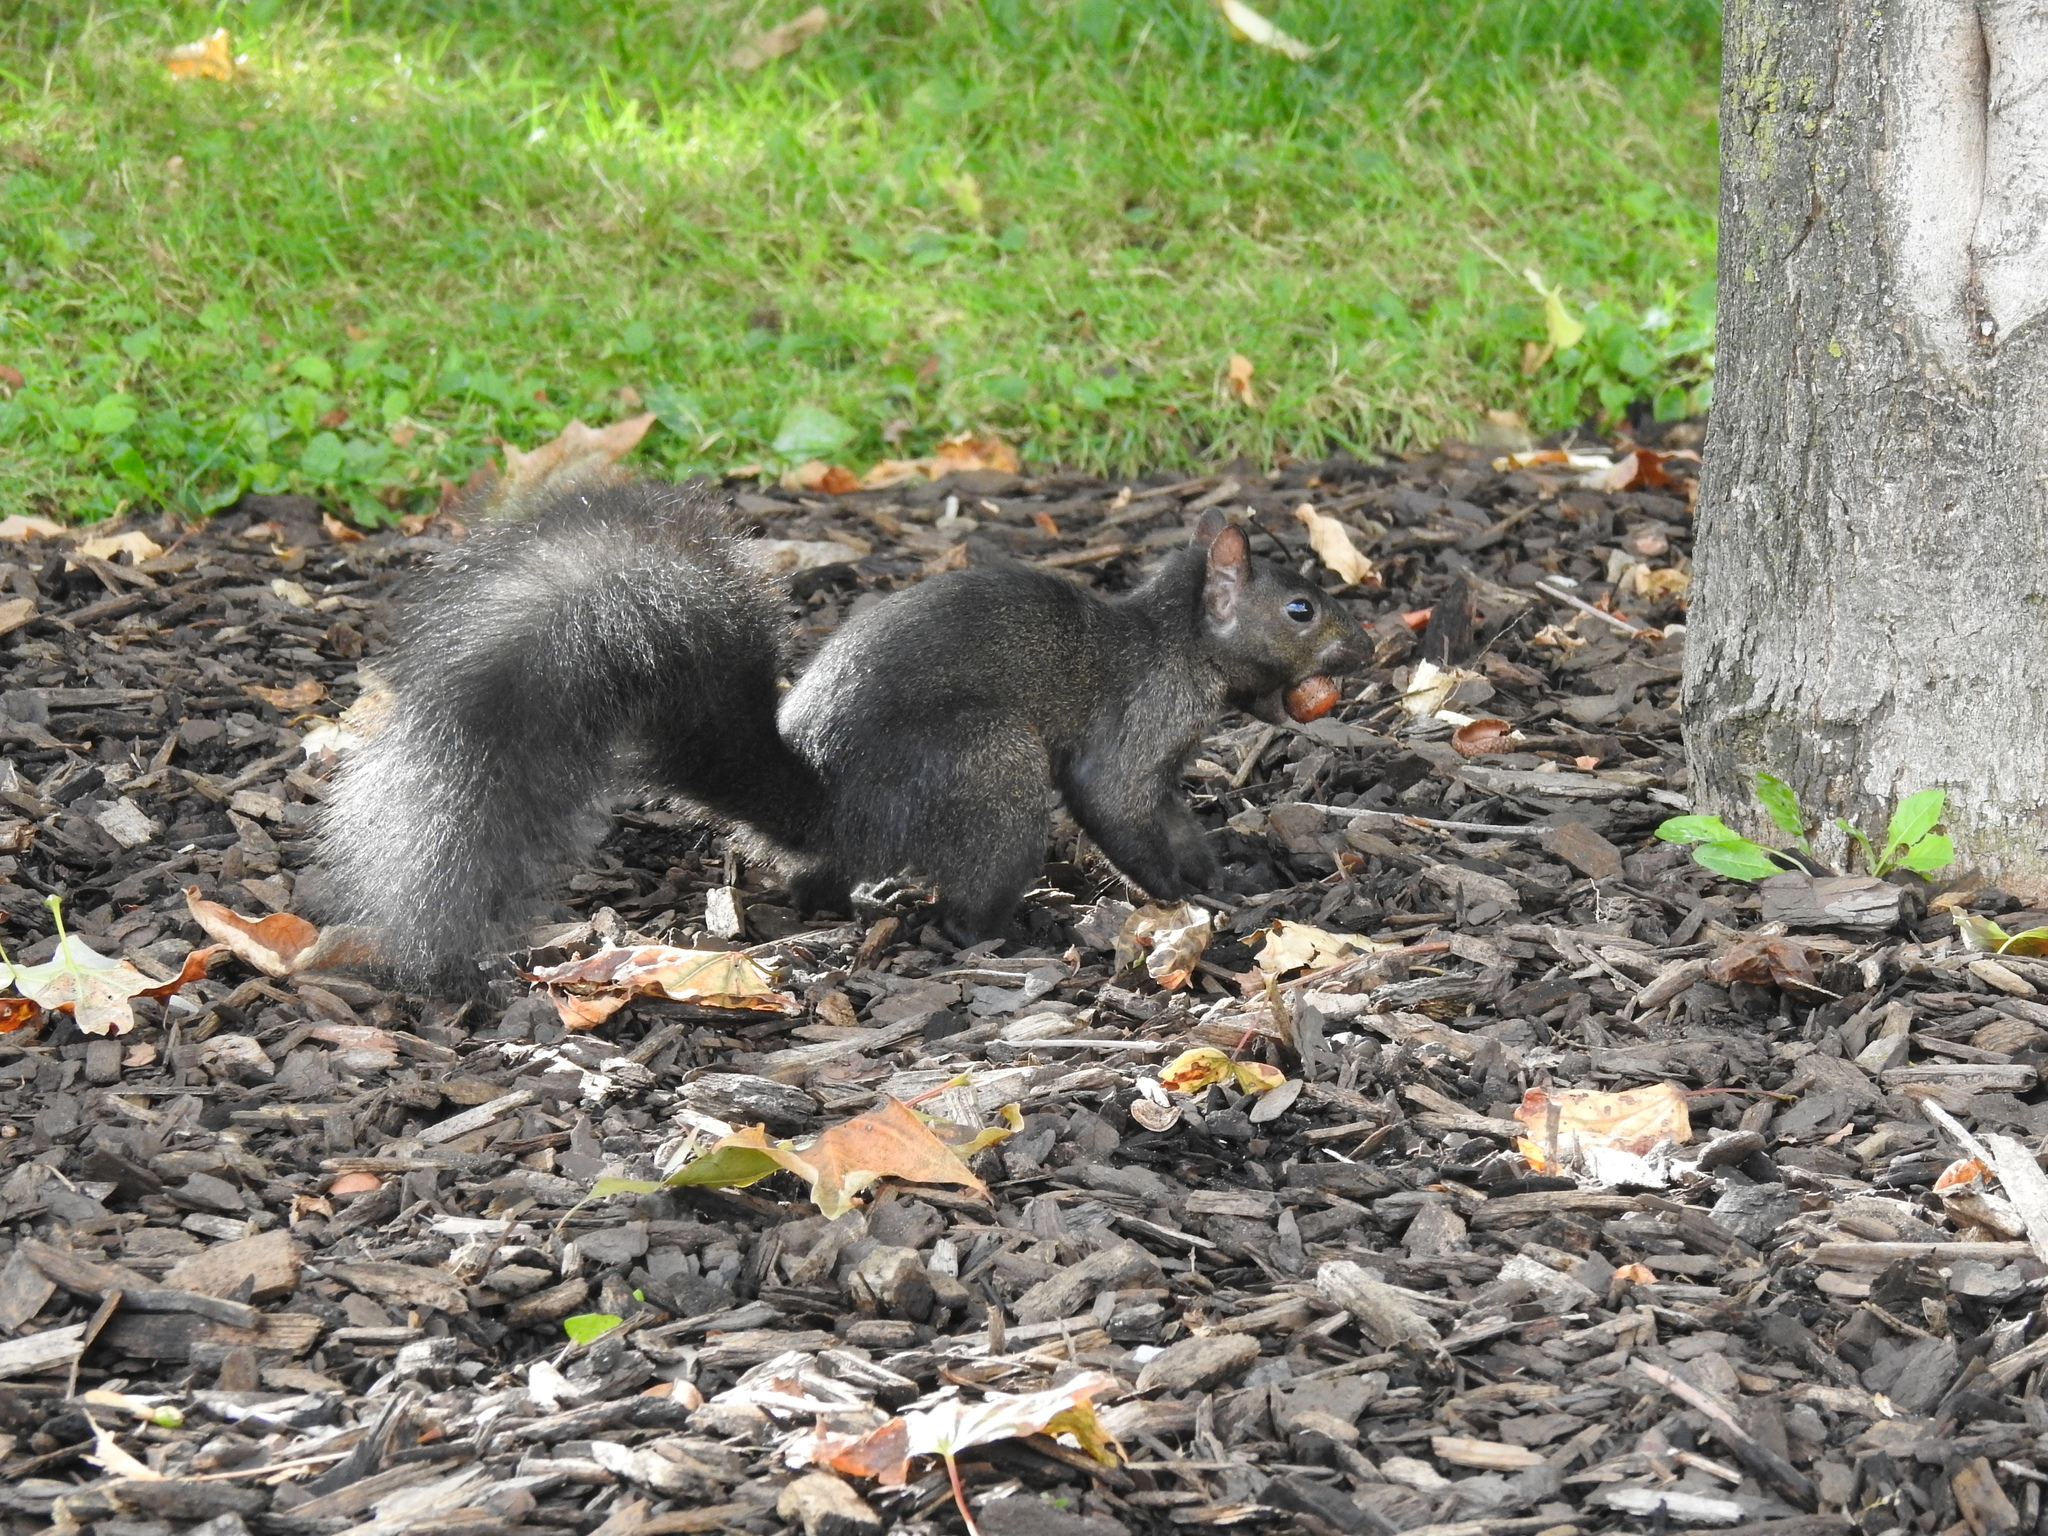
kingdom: Animalia
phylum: Chordata
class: Mammalia
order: Rodentia
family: Sciuridae
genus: Sciurus
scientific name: Sciurus carolinensis
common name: Eastern gray squirrel
